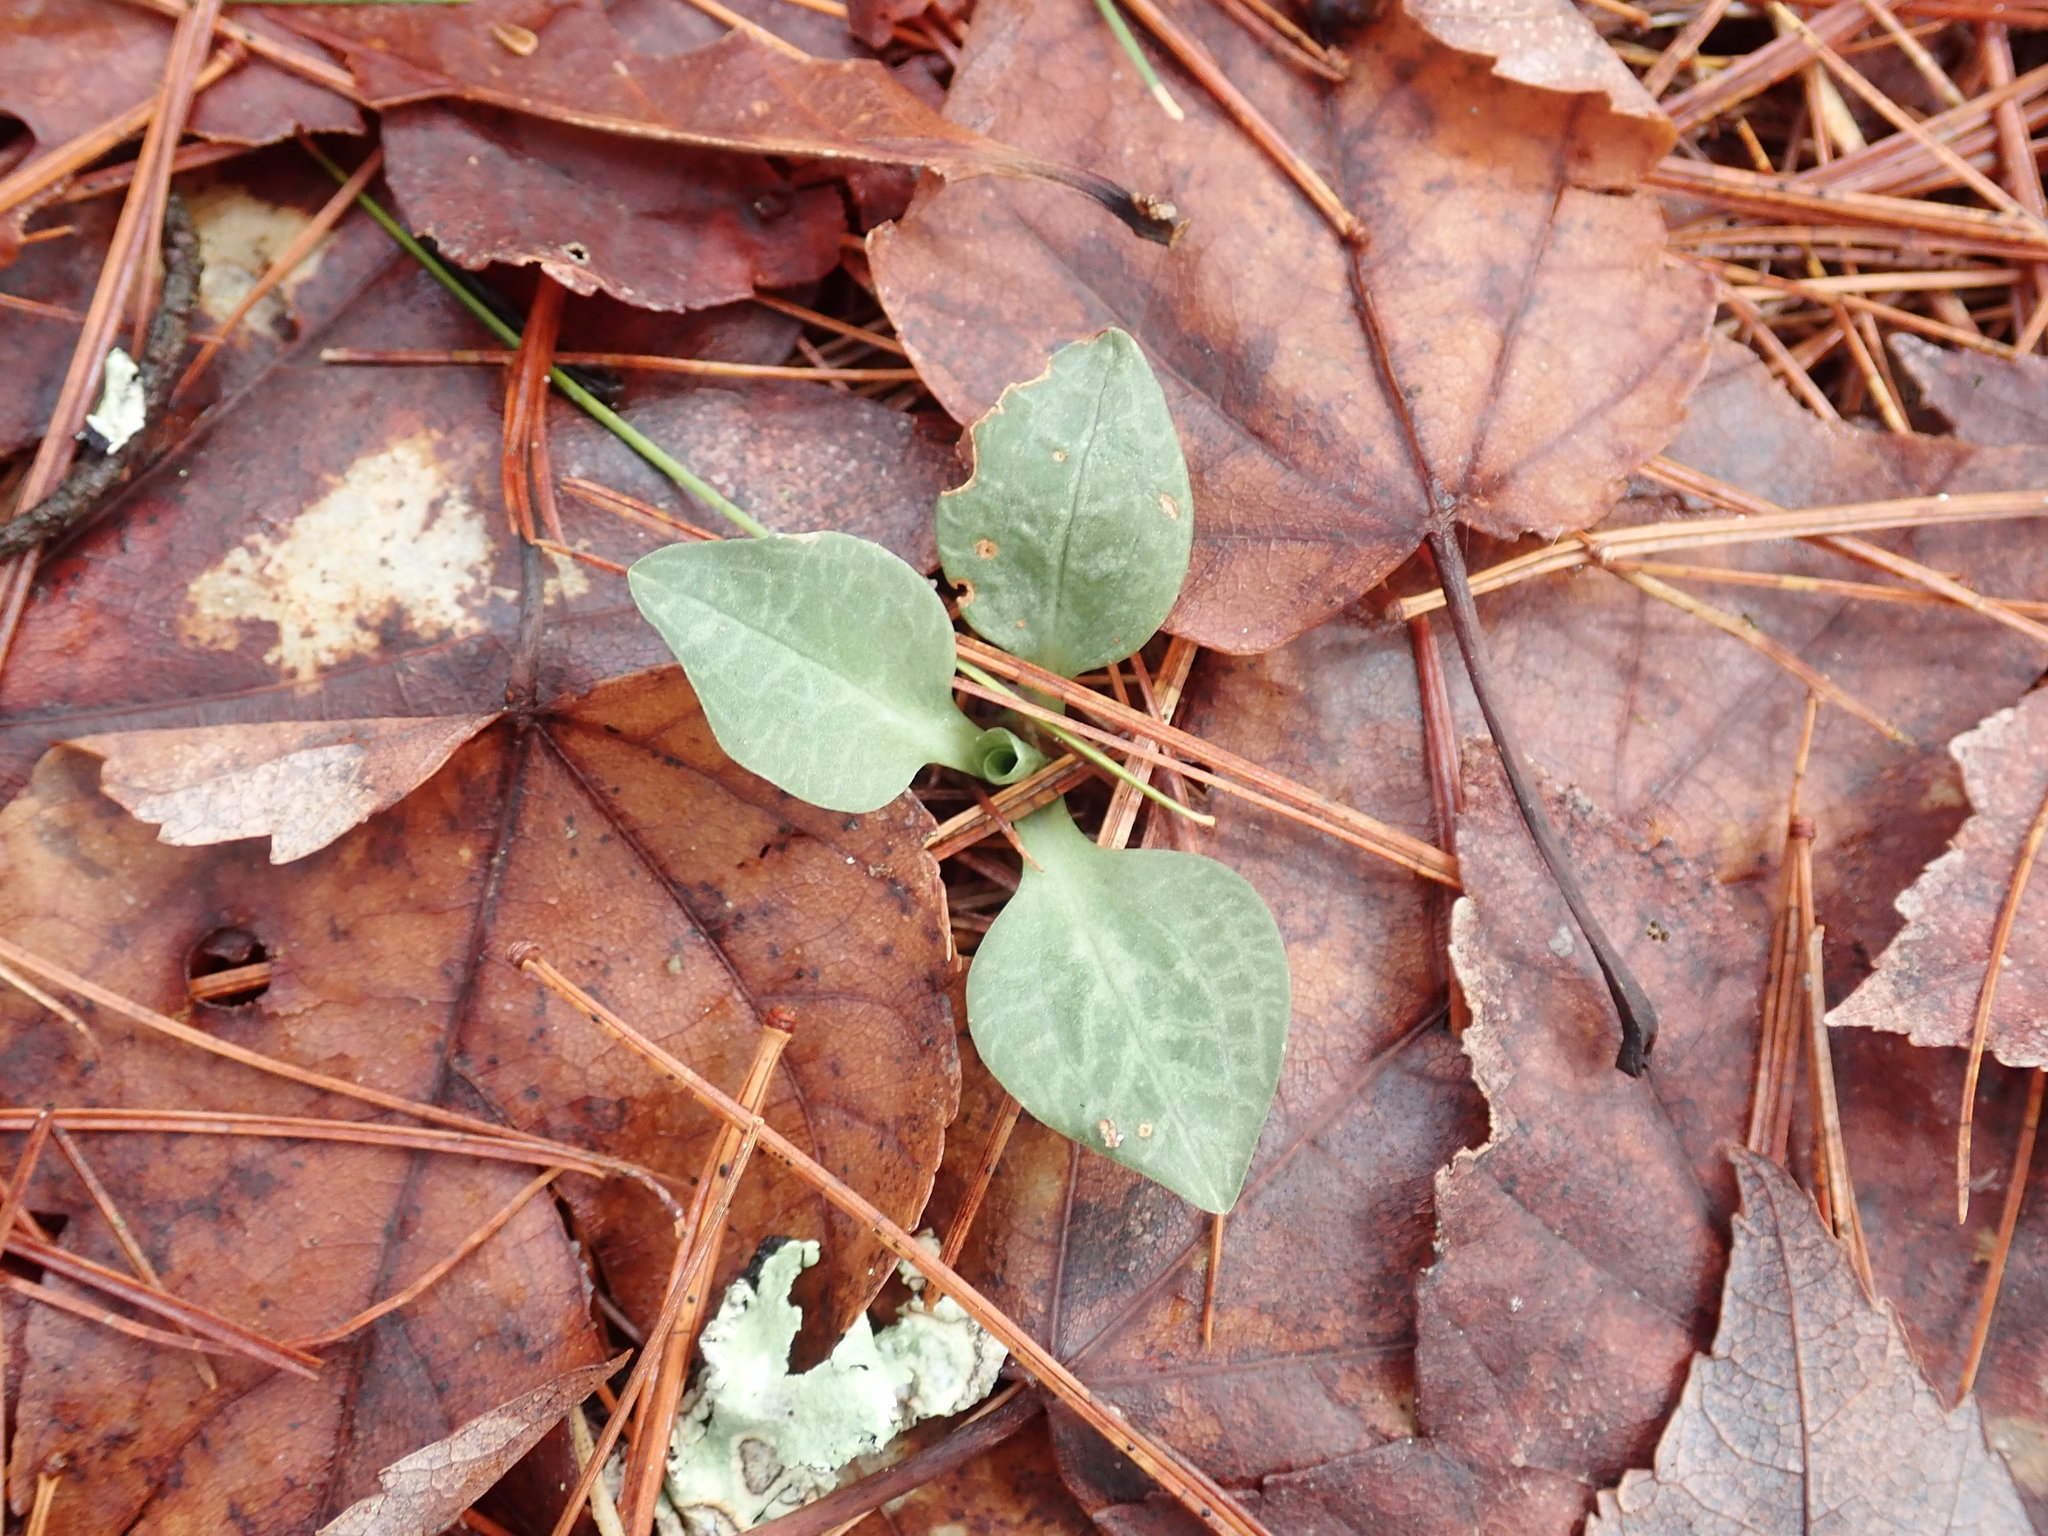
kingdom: Plantae
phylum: Tracheophyta
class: Liliopsida
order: Asparagales
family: Orchidaceae
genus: Goodyera
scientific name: Goodyera tesselata
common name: Checkered rattlesnake-plantain
